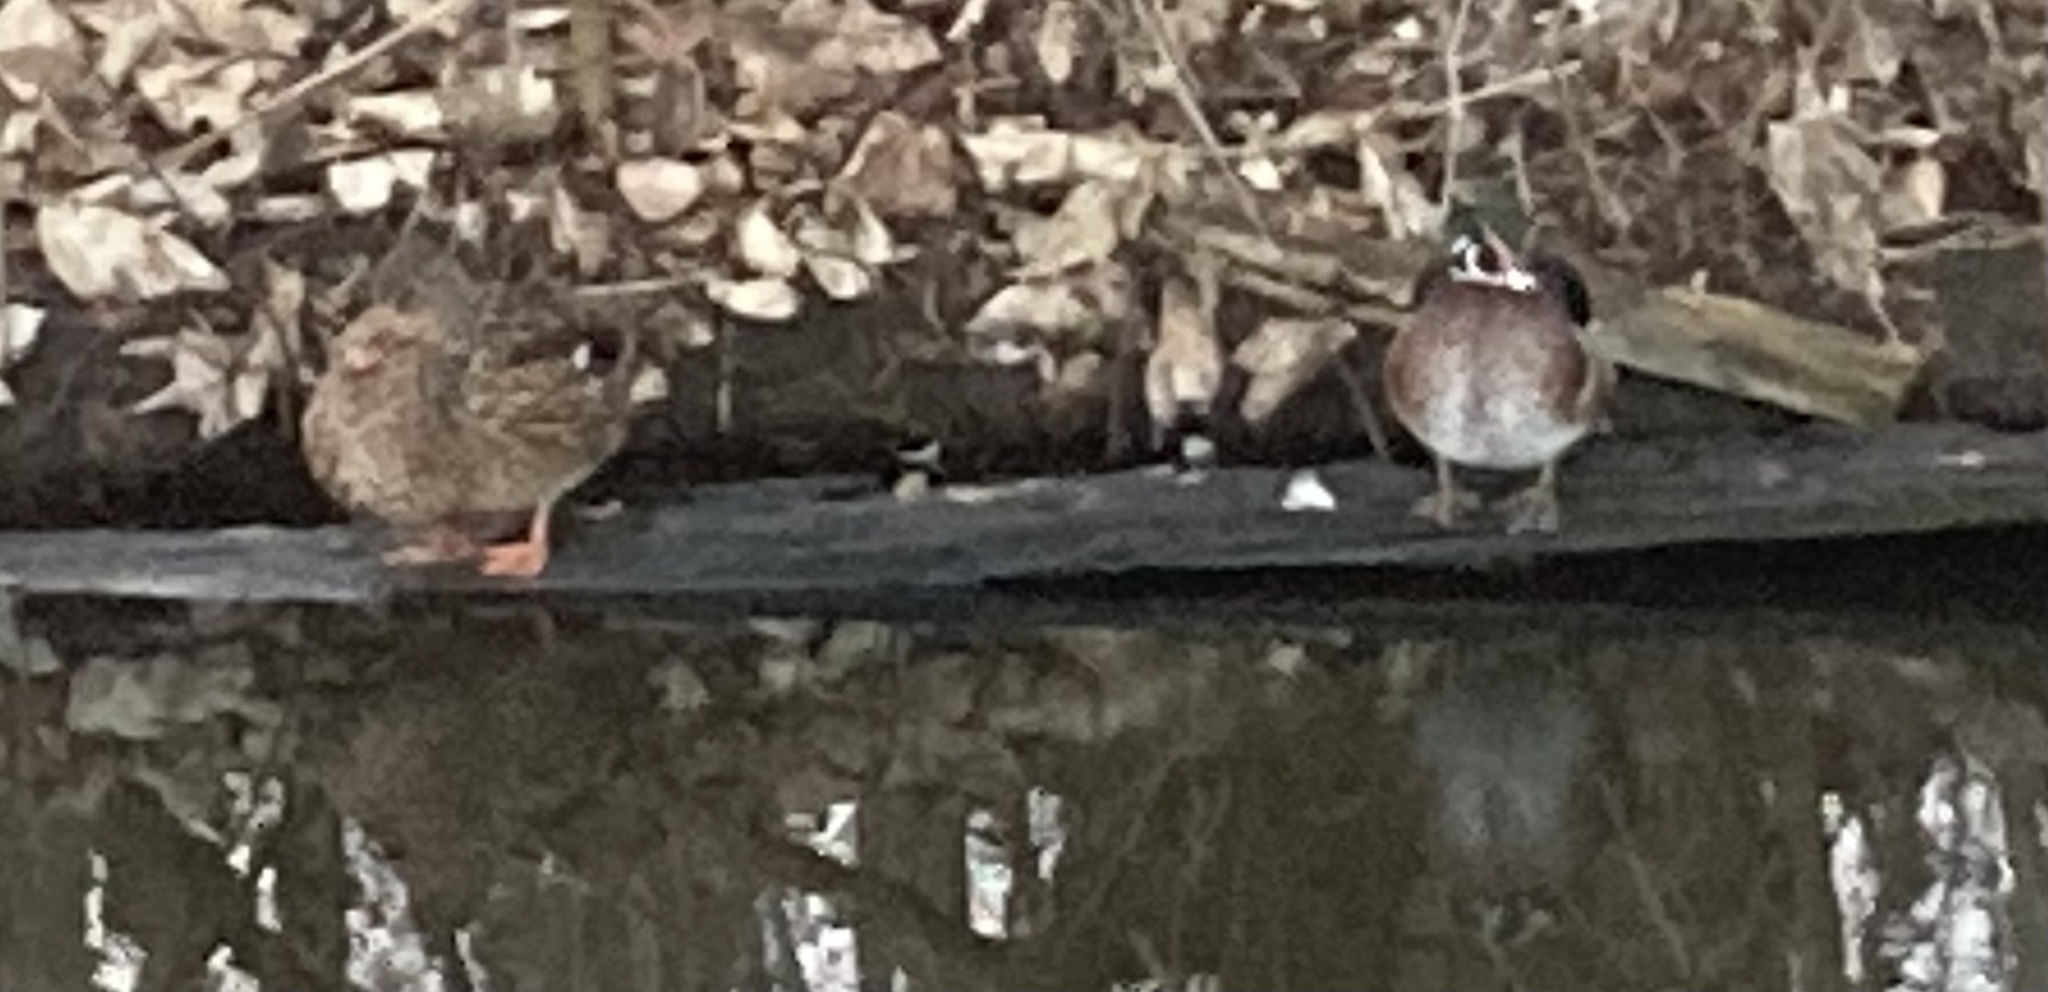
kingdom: Animalia
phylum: Chordata
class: Aves
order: Anseriformes
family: Anatidae
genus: Aix
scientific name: Aix sponsa
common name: Wood duck
